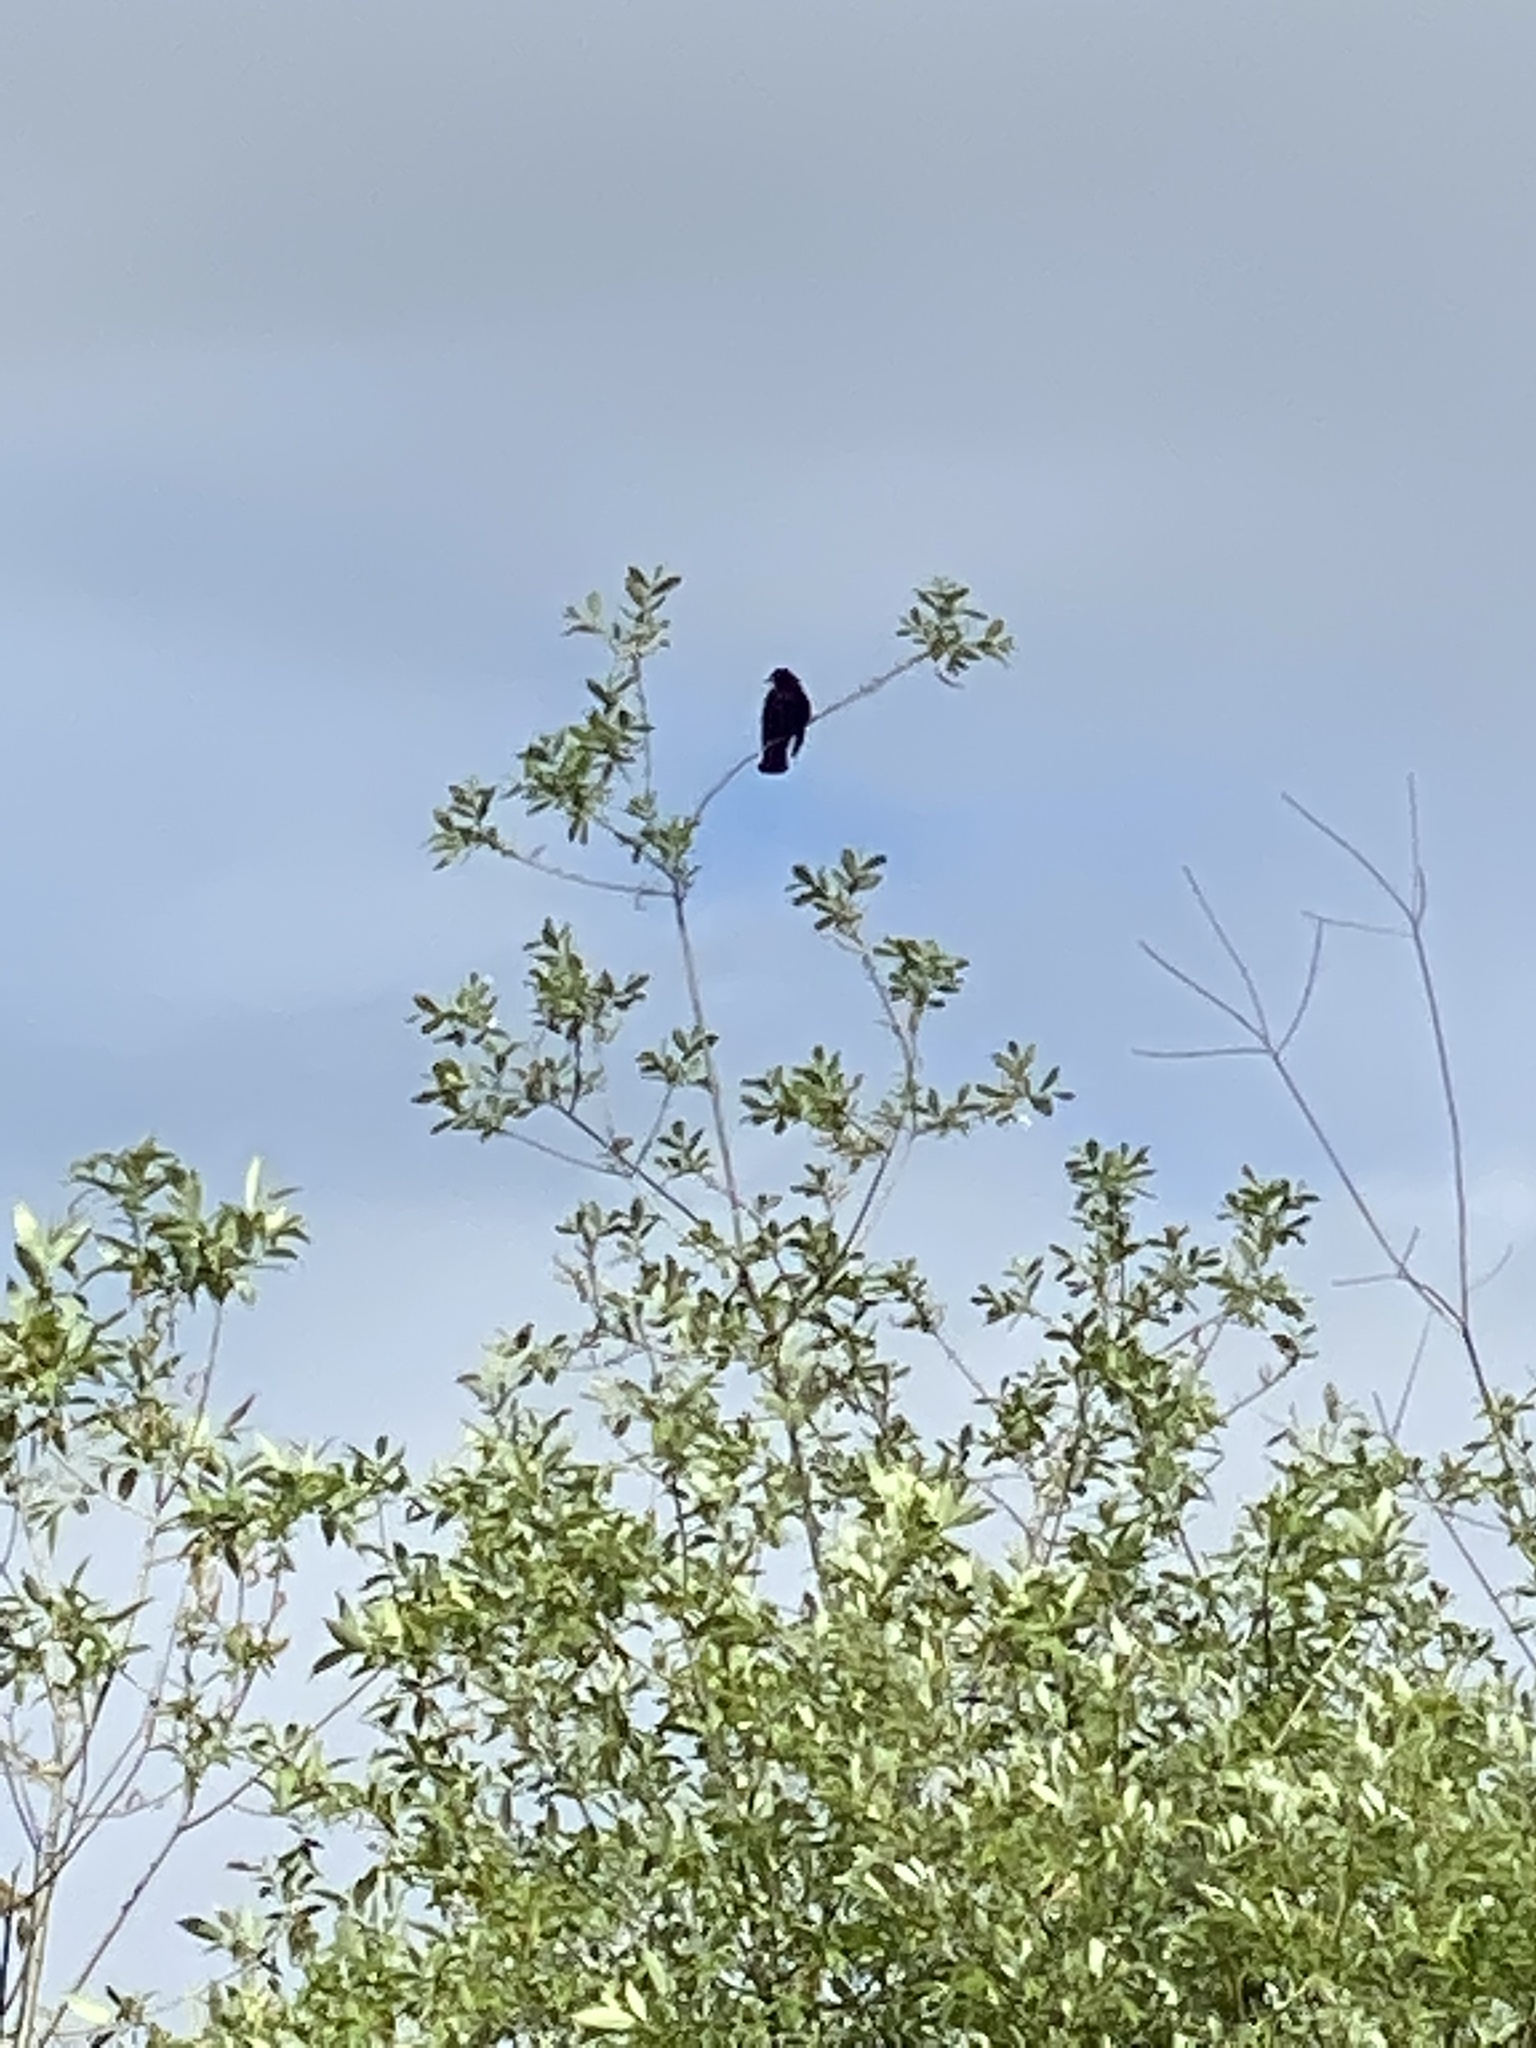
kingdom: Animalia
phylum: Chordata
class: Aves
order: Passeriformes
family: Icteridae
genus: Agelaius
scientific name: Agelaius phoeniceus
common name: Red-winged blackbird
